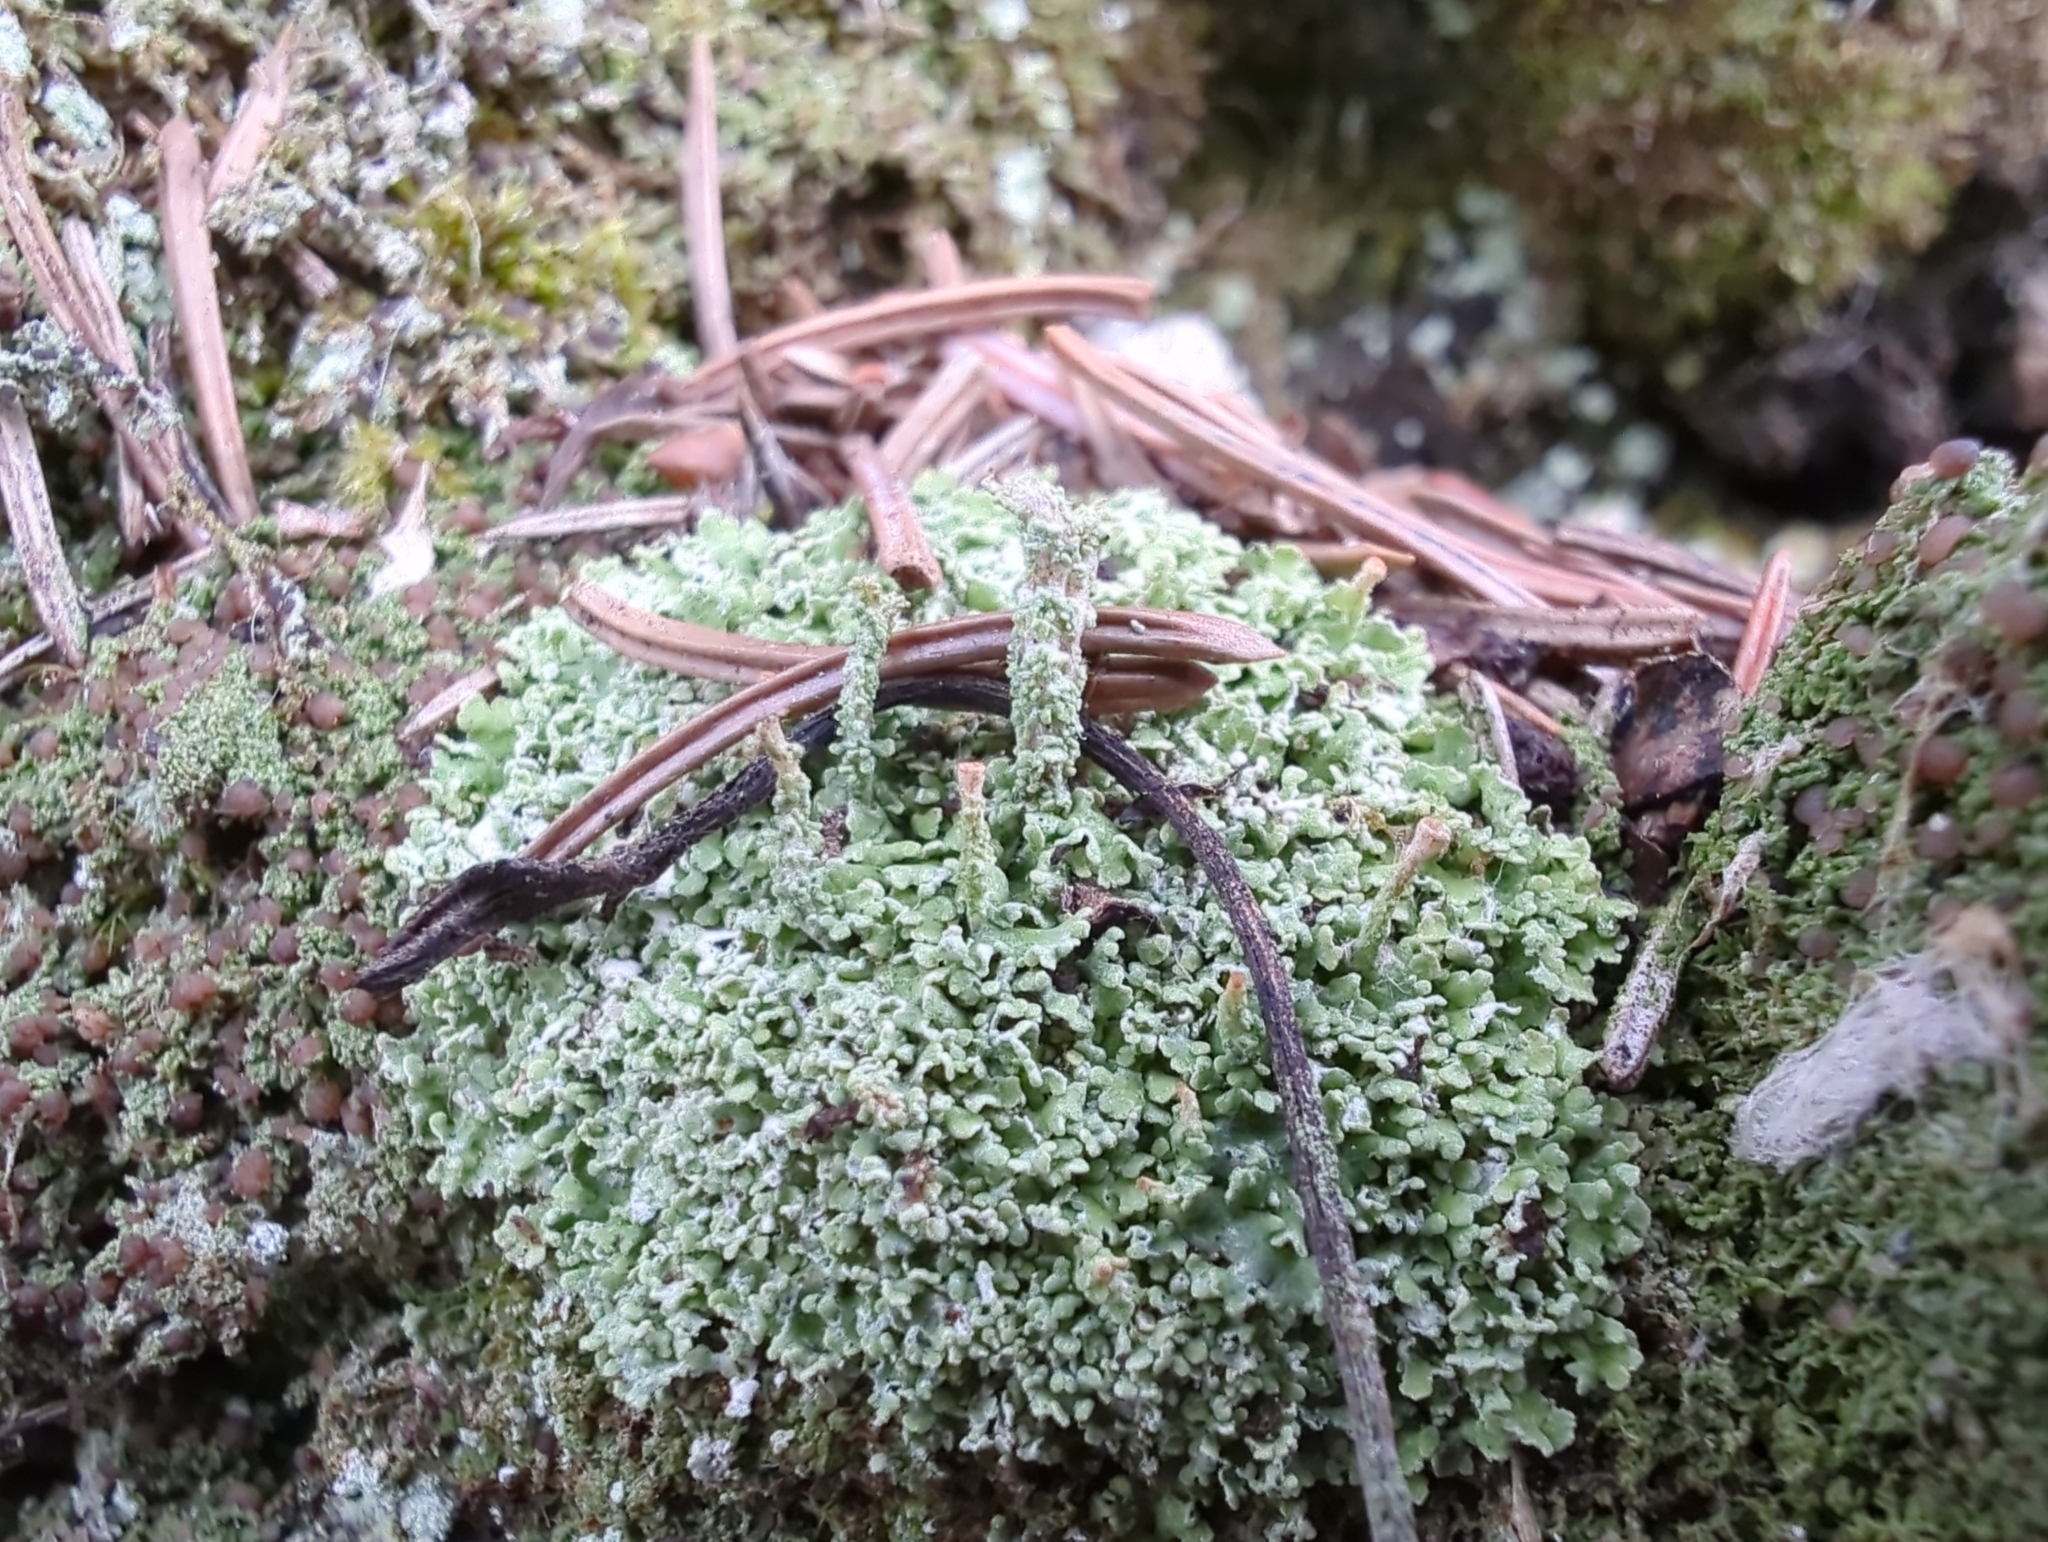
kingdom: Fungi
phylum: Ascomycota
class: Lecanoromycetes
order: Lecanorales
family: Cladoniaceae
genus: Cladonia
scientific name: Cladonia pyxidata
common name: Pebbled pixie cup
